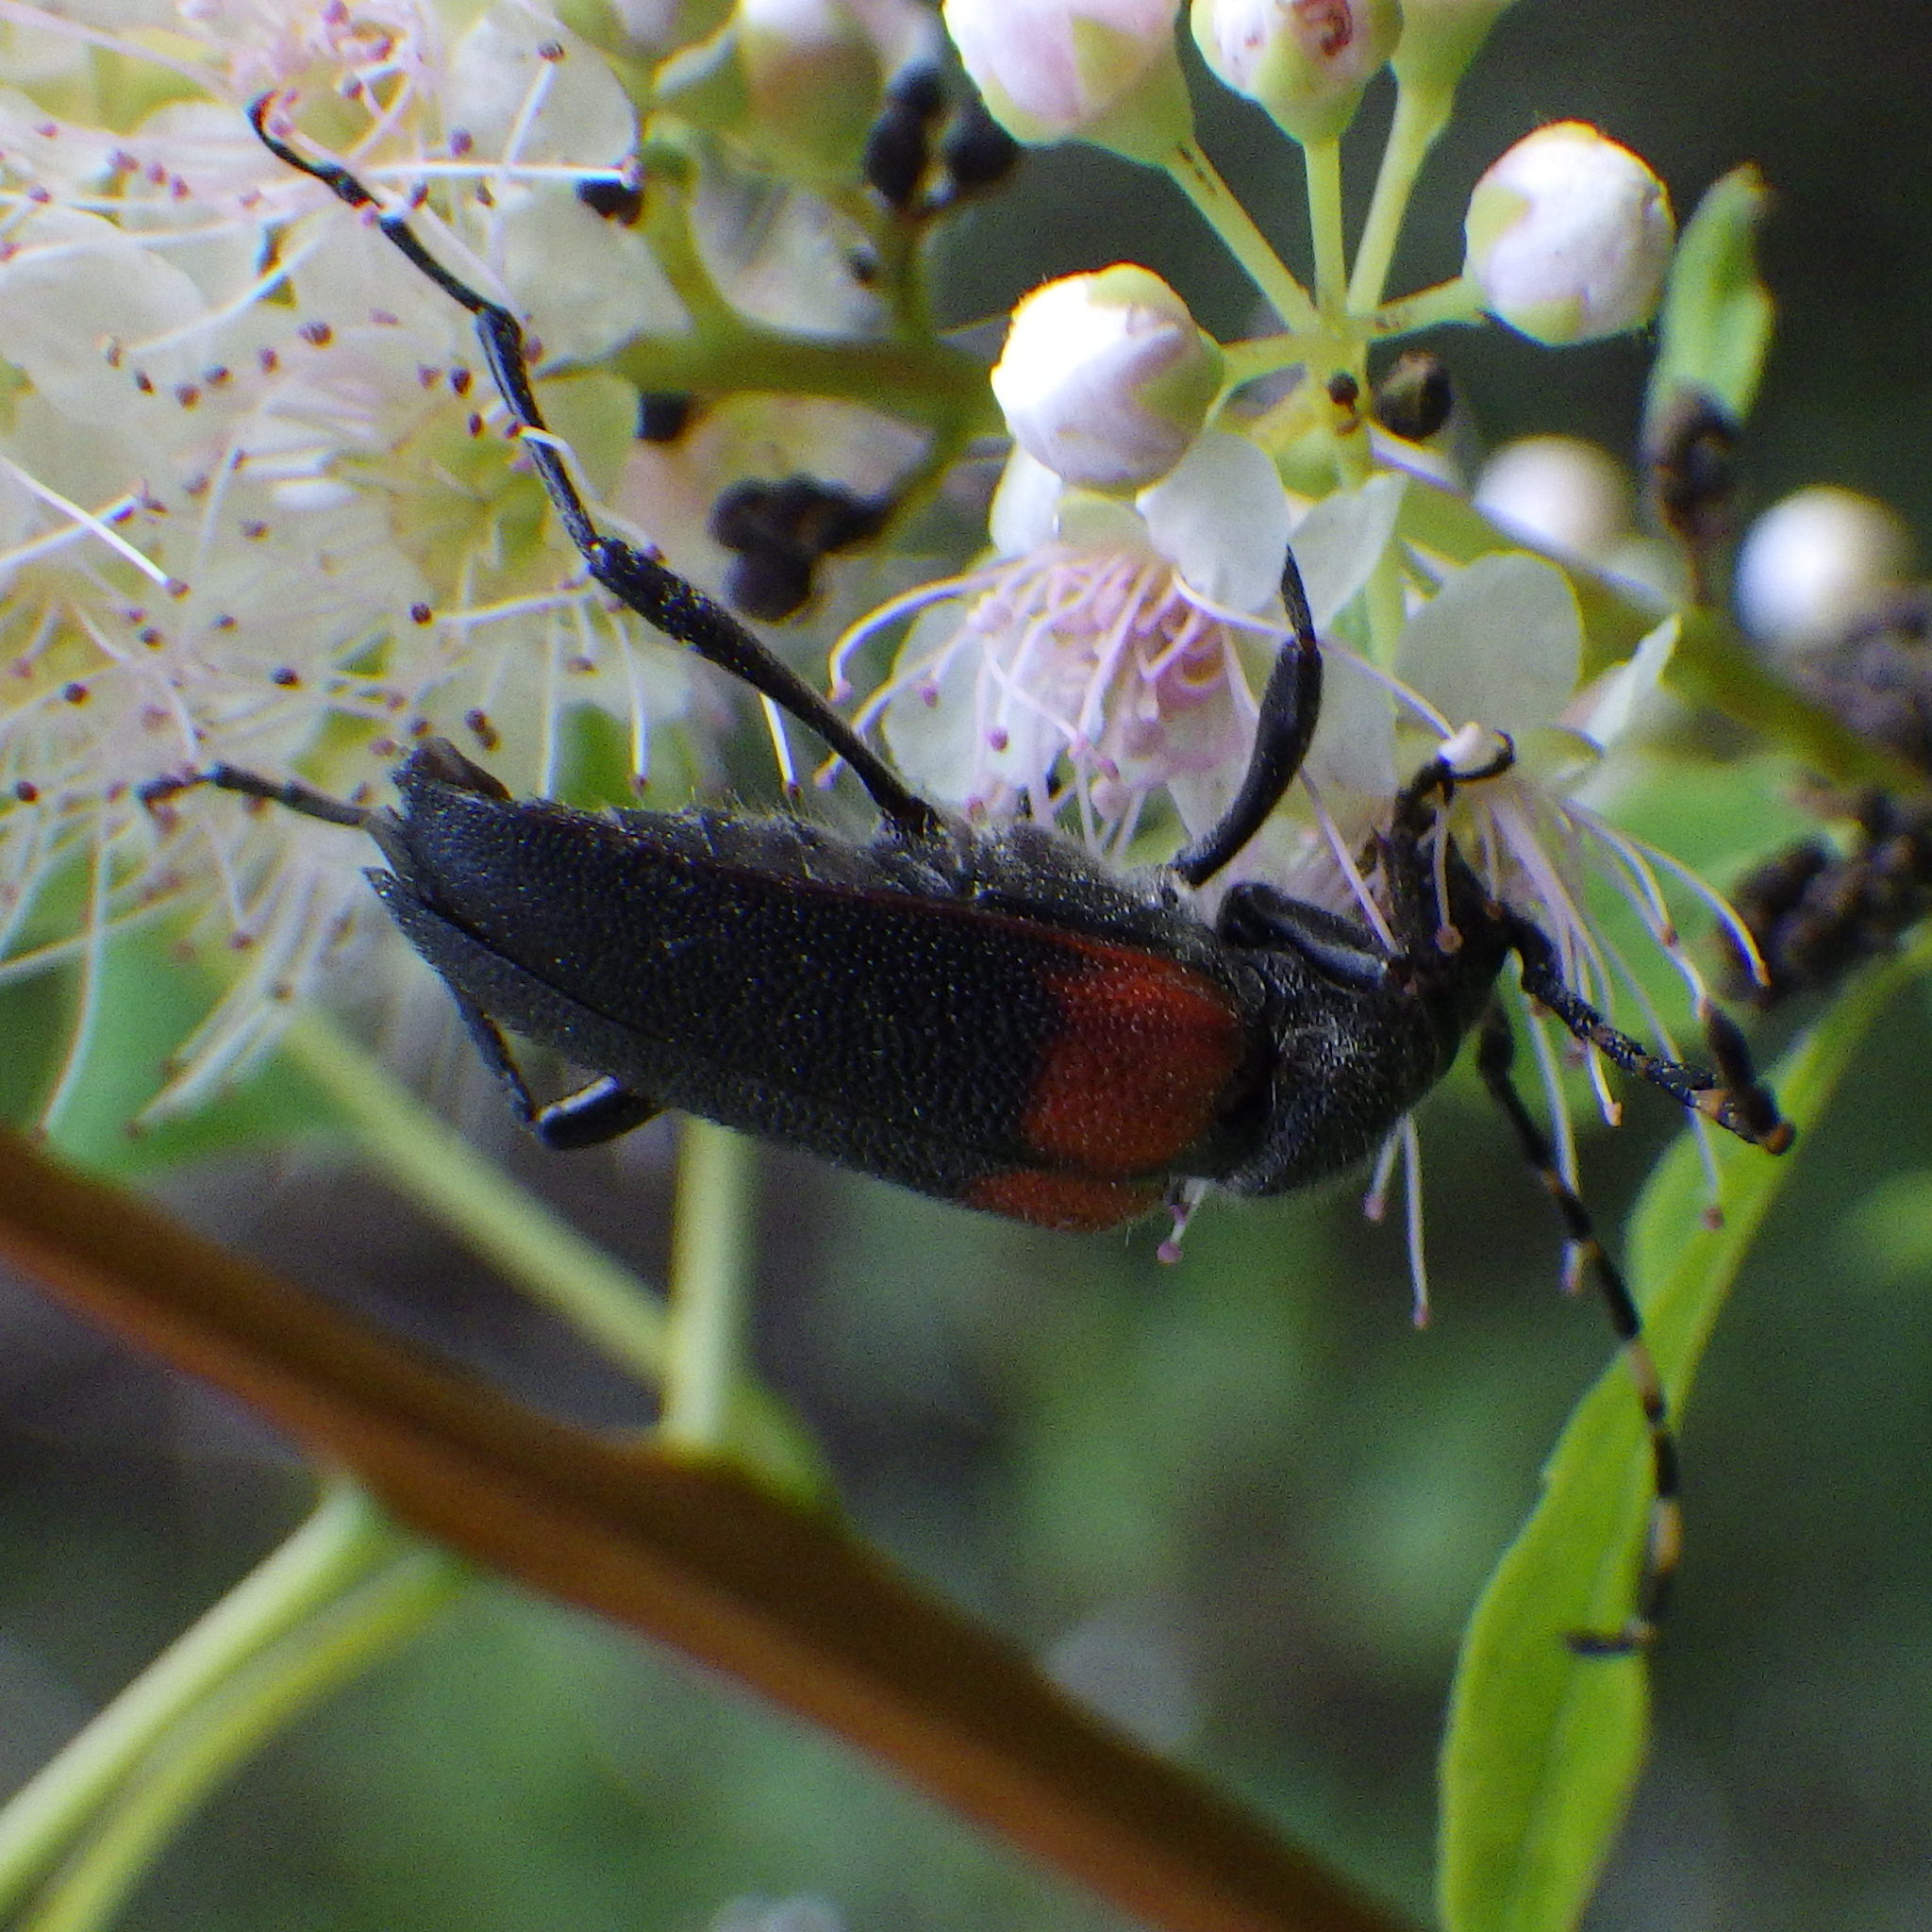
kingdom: Animalia
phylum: Arthropoda
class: Insecta
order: Coleoptera
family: Cerambycidae
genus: Stictoleptura
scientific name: Stictoleptura canadensis
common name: Red-shouldered pine borer
